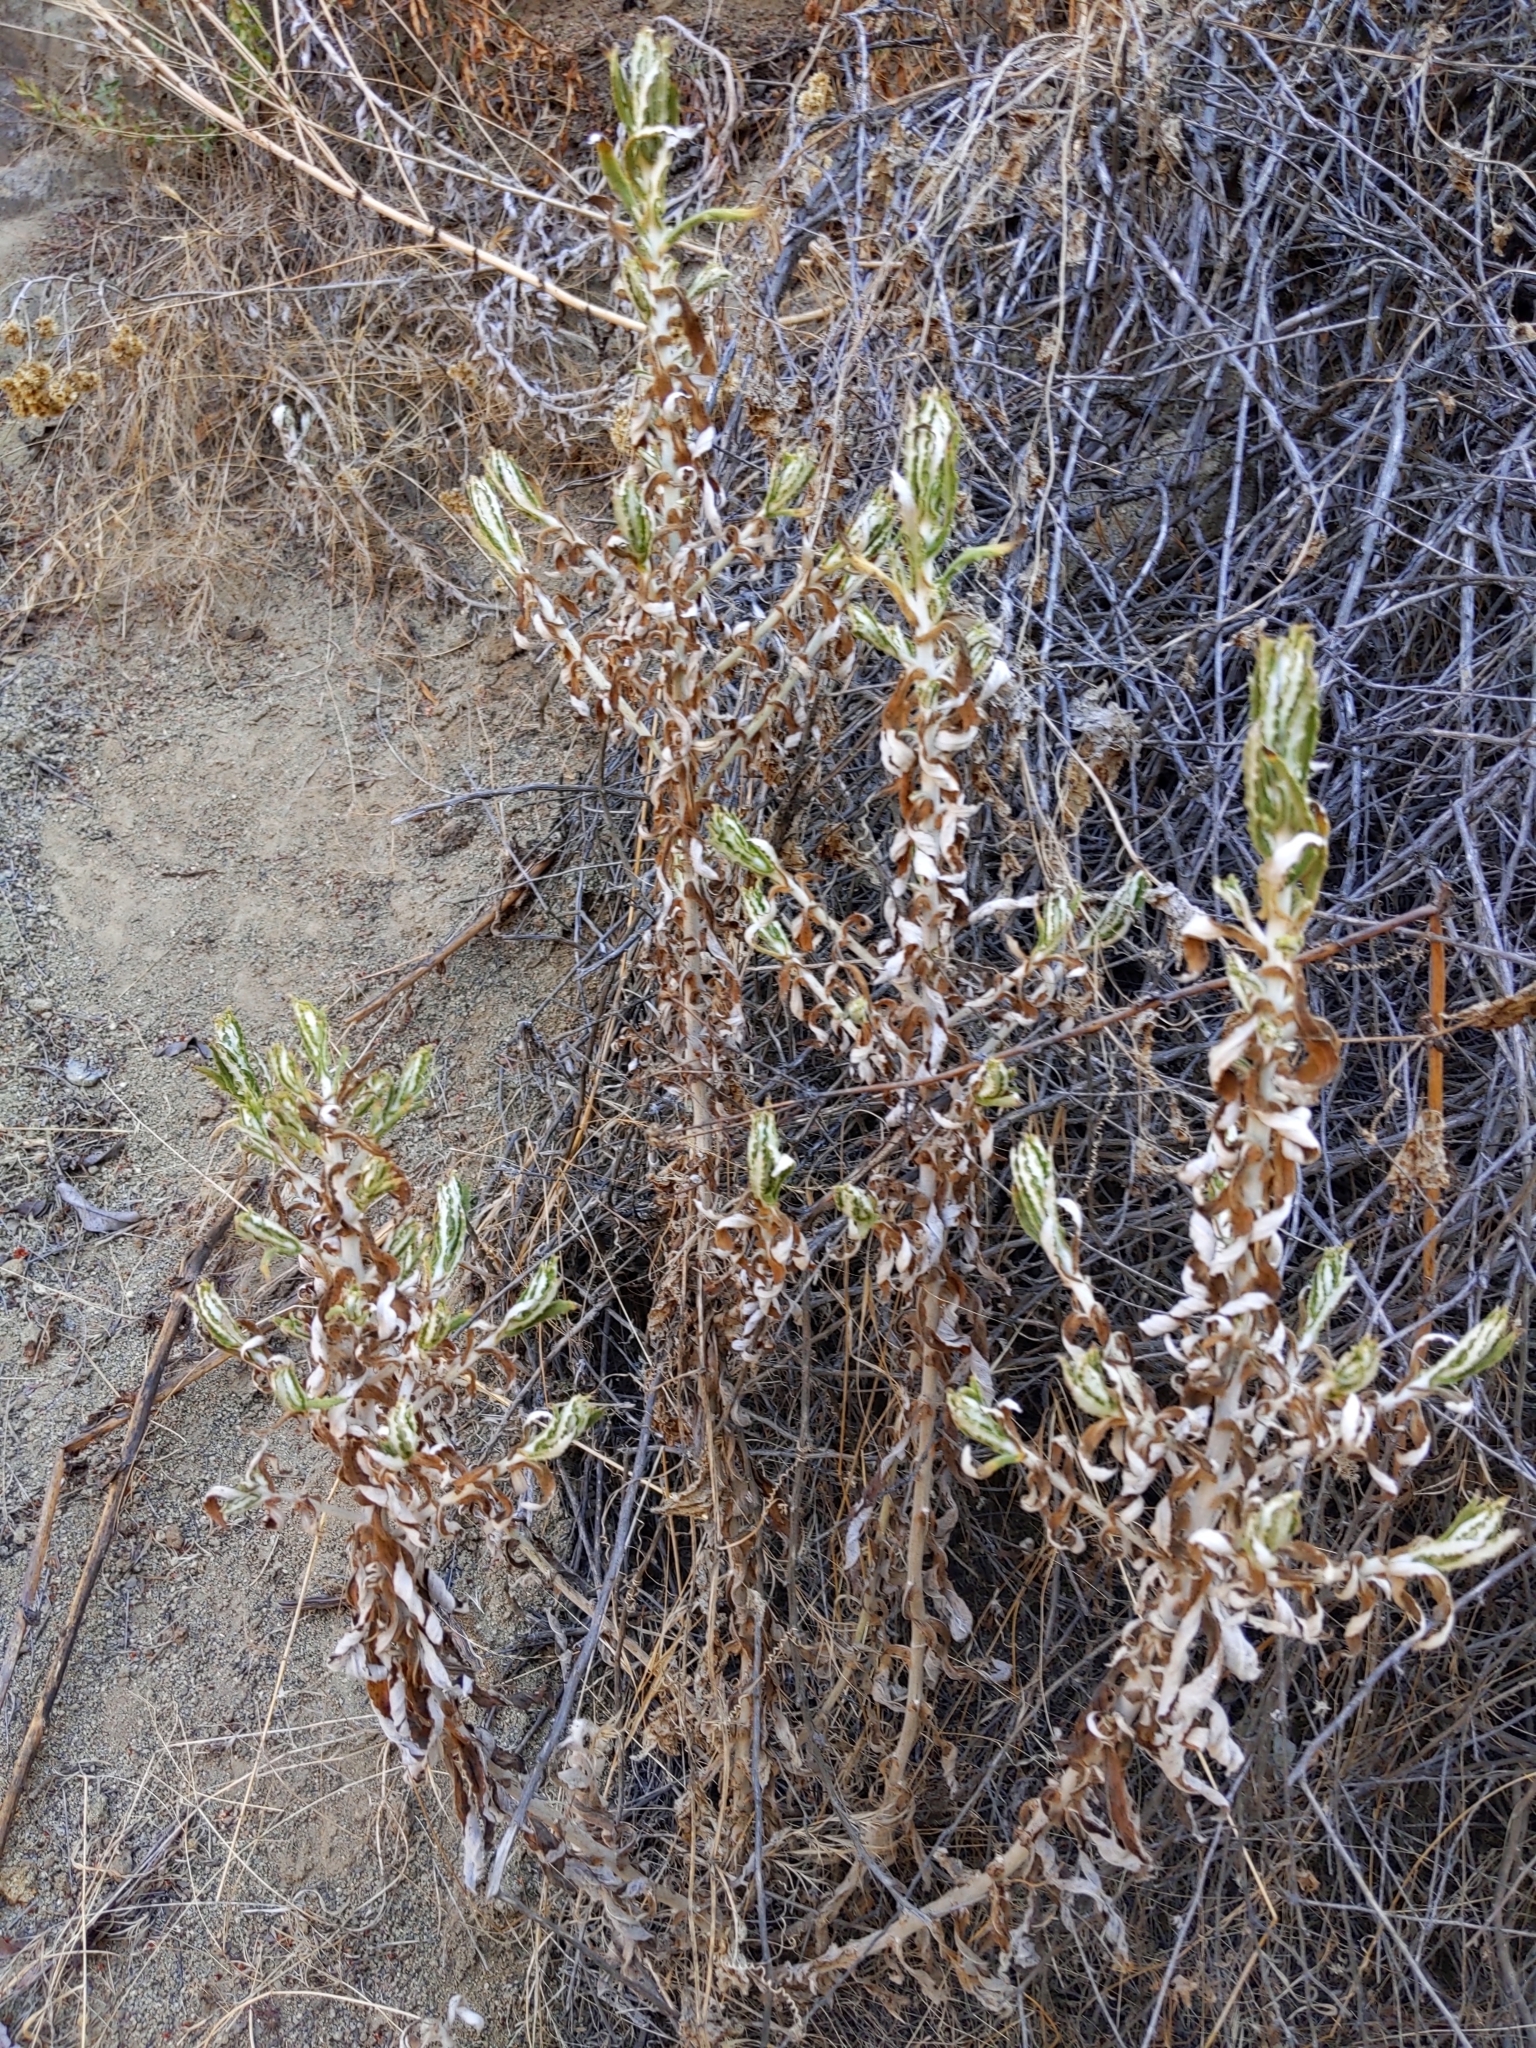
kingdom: Plantae
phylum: Tracheophyta
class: Magnoliopsida
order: Asterales
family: Asteraceae
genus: Pseudognaphalium
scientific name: Pseudognaphalium biolettii
